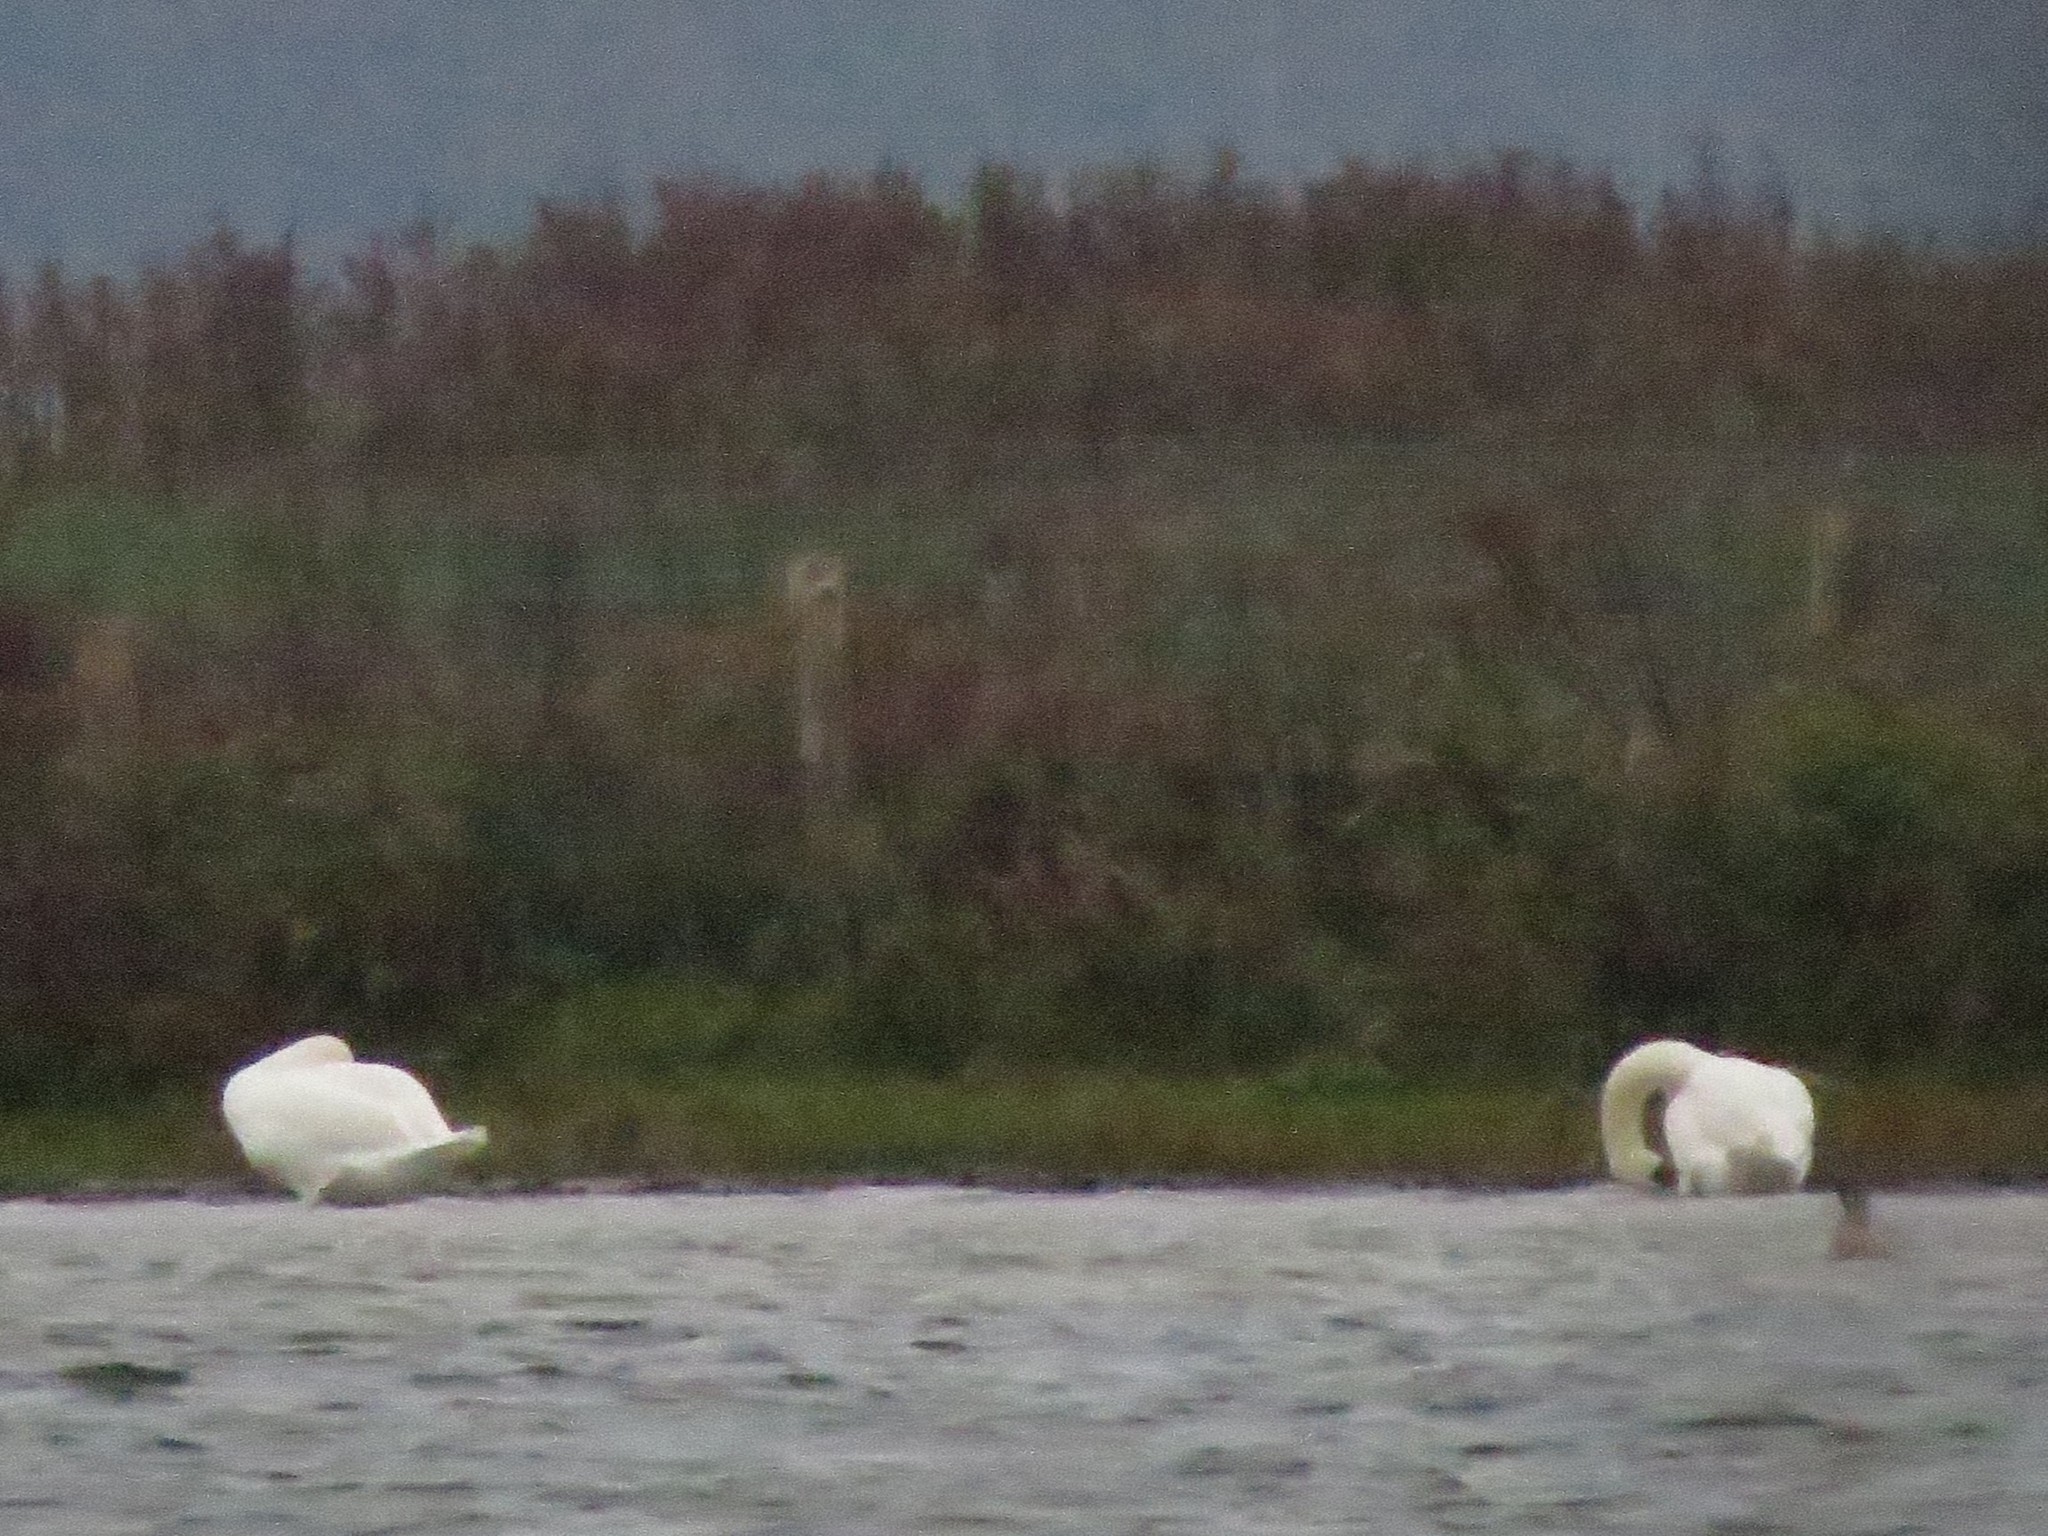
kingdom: Animalia
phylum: Chordata
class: Aves
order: Anseriformes
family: Anatidae
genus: Cygnus
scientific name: Cygnus olor
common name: Mute swan
